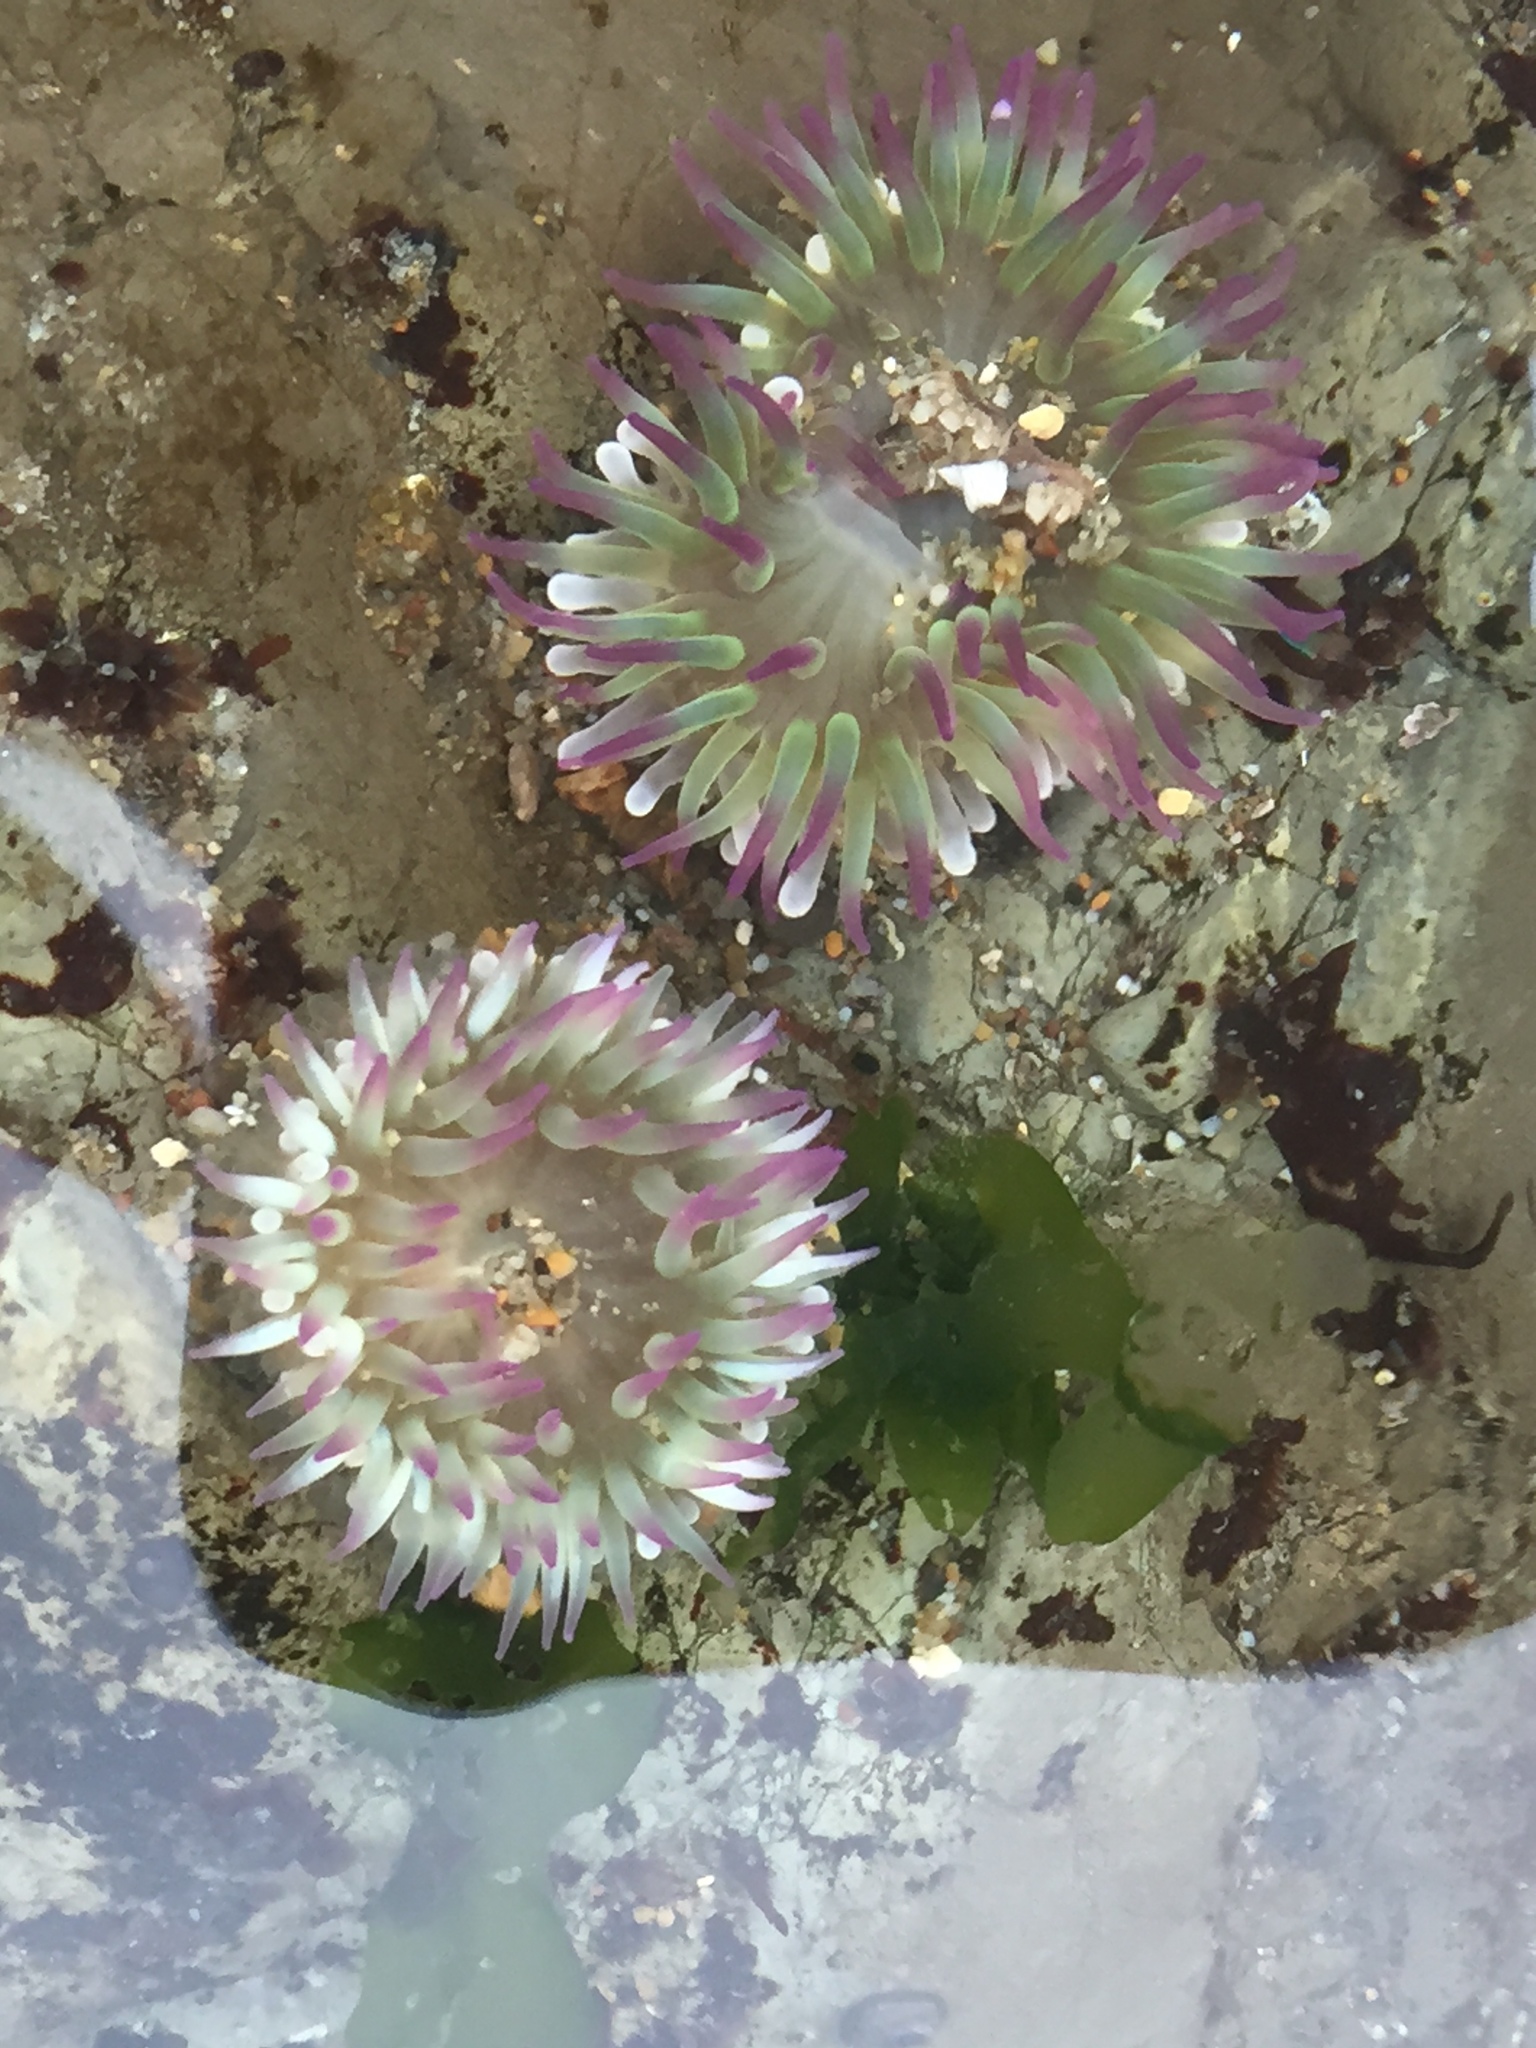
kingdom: Animalia
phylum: Cnidaria
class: Anthozoa
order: Actiniaria
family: Actiniidae
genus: Anthopleura
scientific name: Anthopleura elegantissima
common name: Clonal anemone
